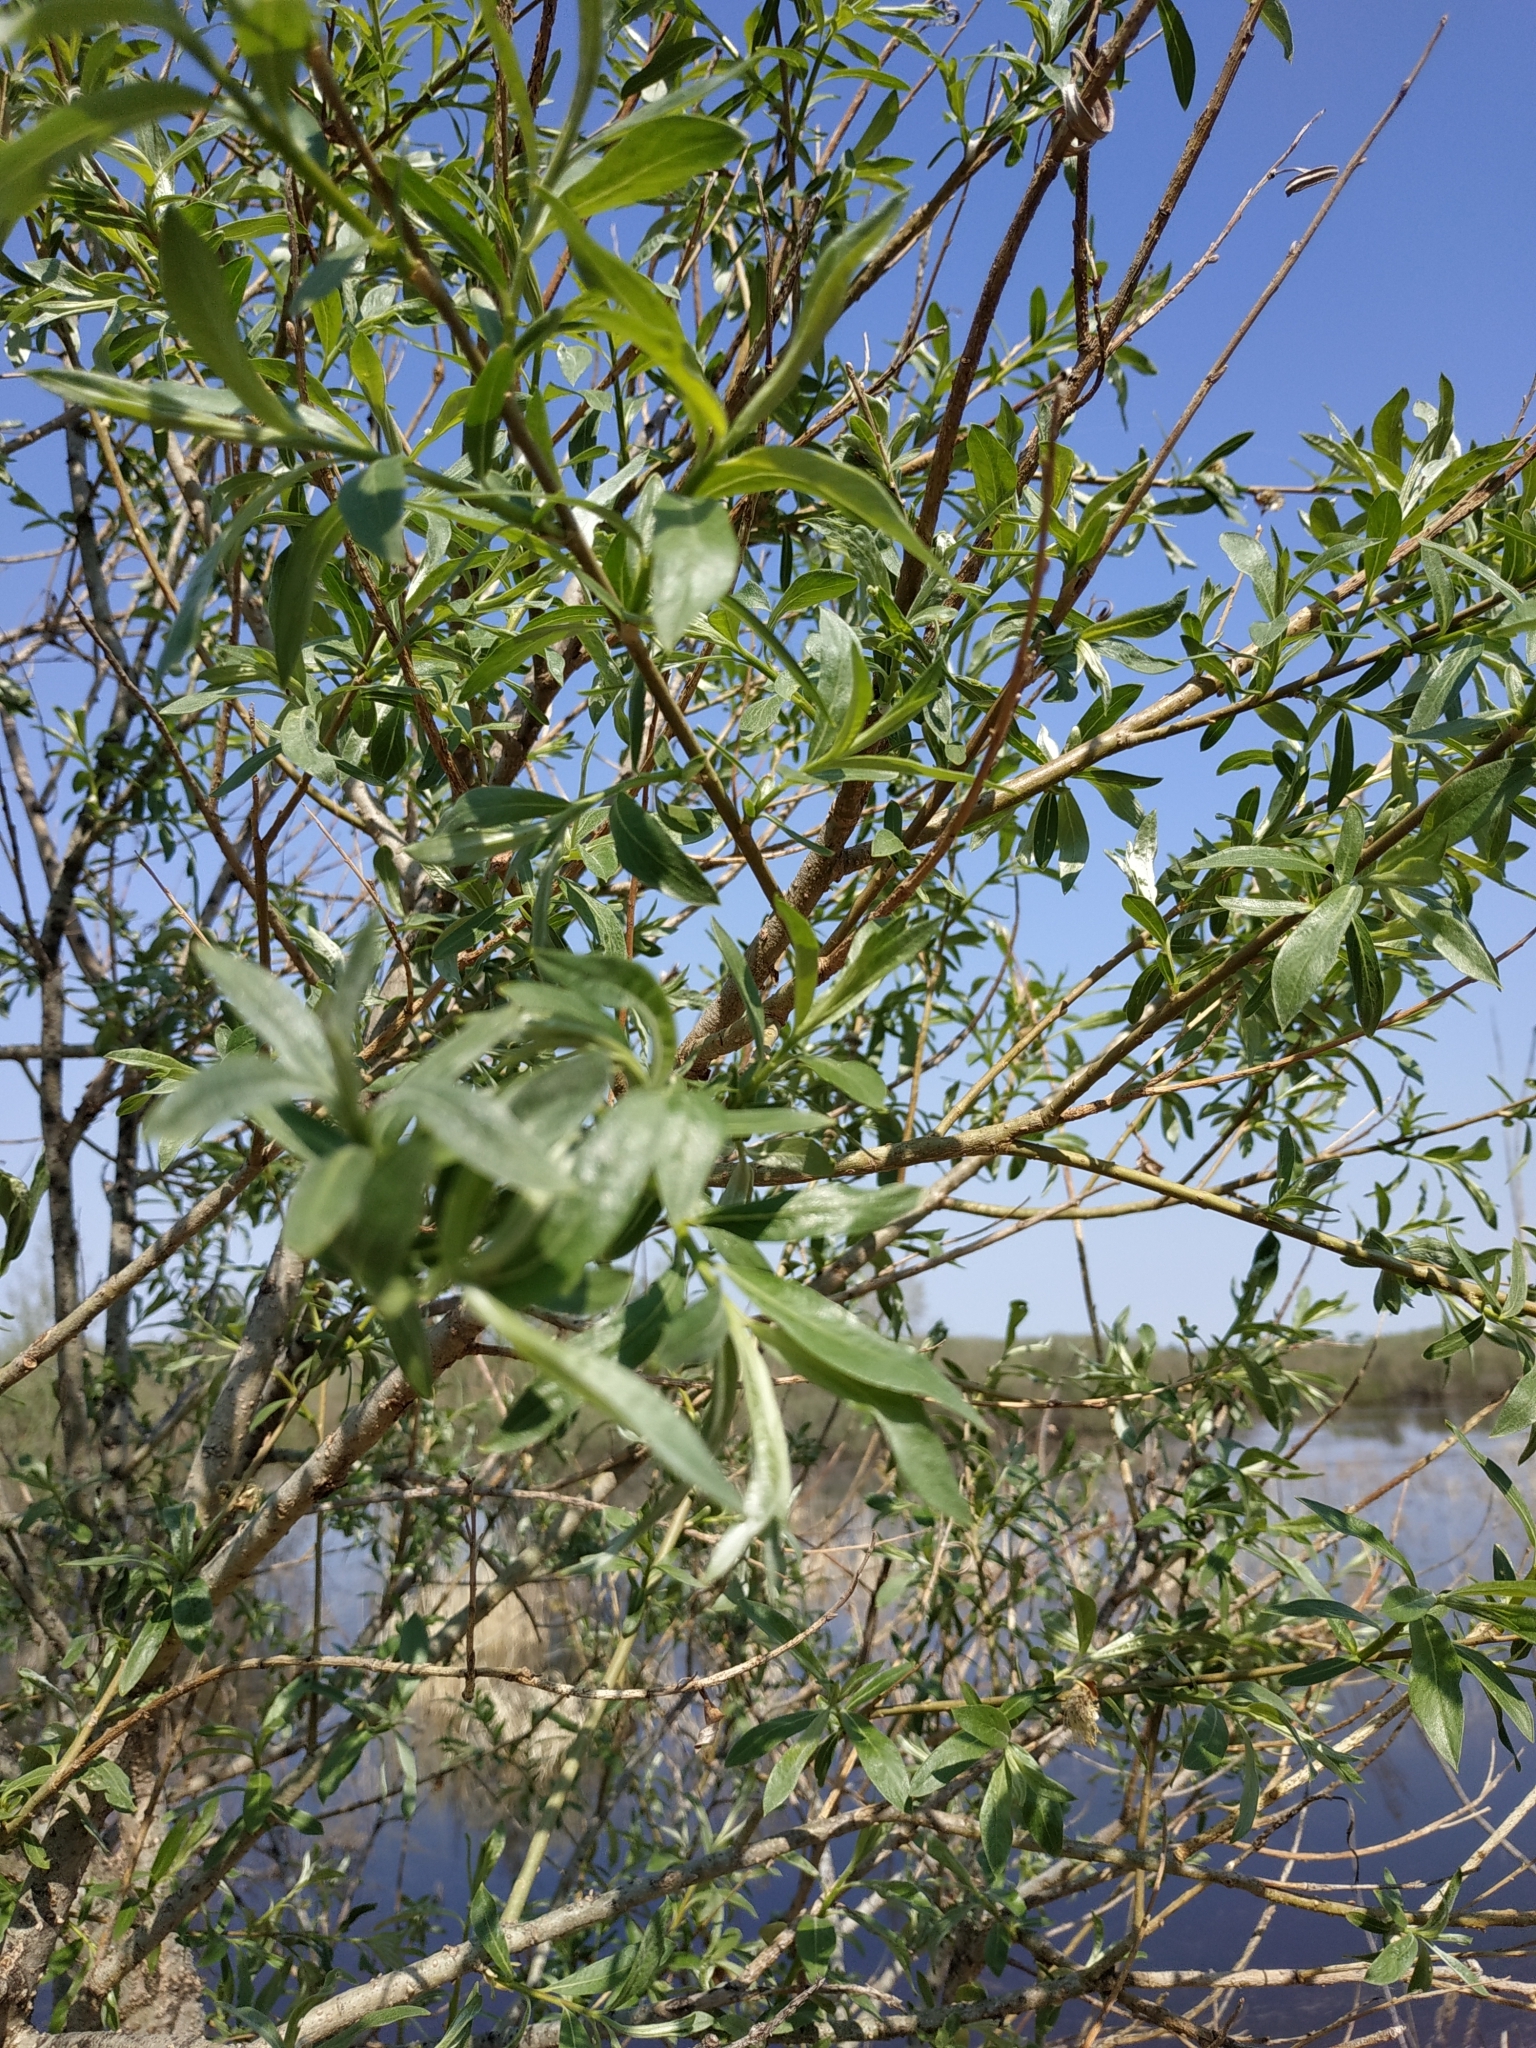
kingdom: Plantae
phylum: Tracheophyta
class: Magnoliopsida
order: Malpighiales
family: Salicaceae
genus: Salix
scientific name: Salix gmelinii
